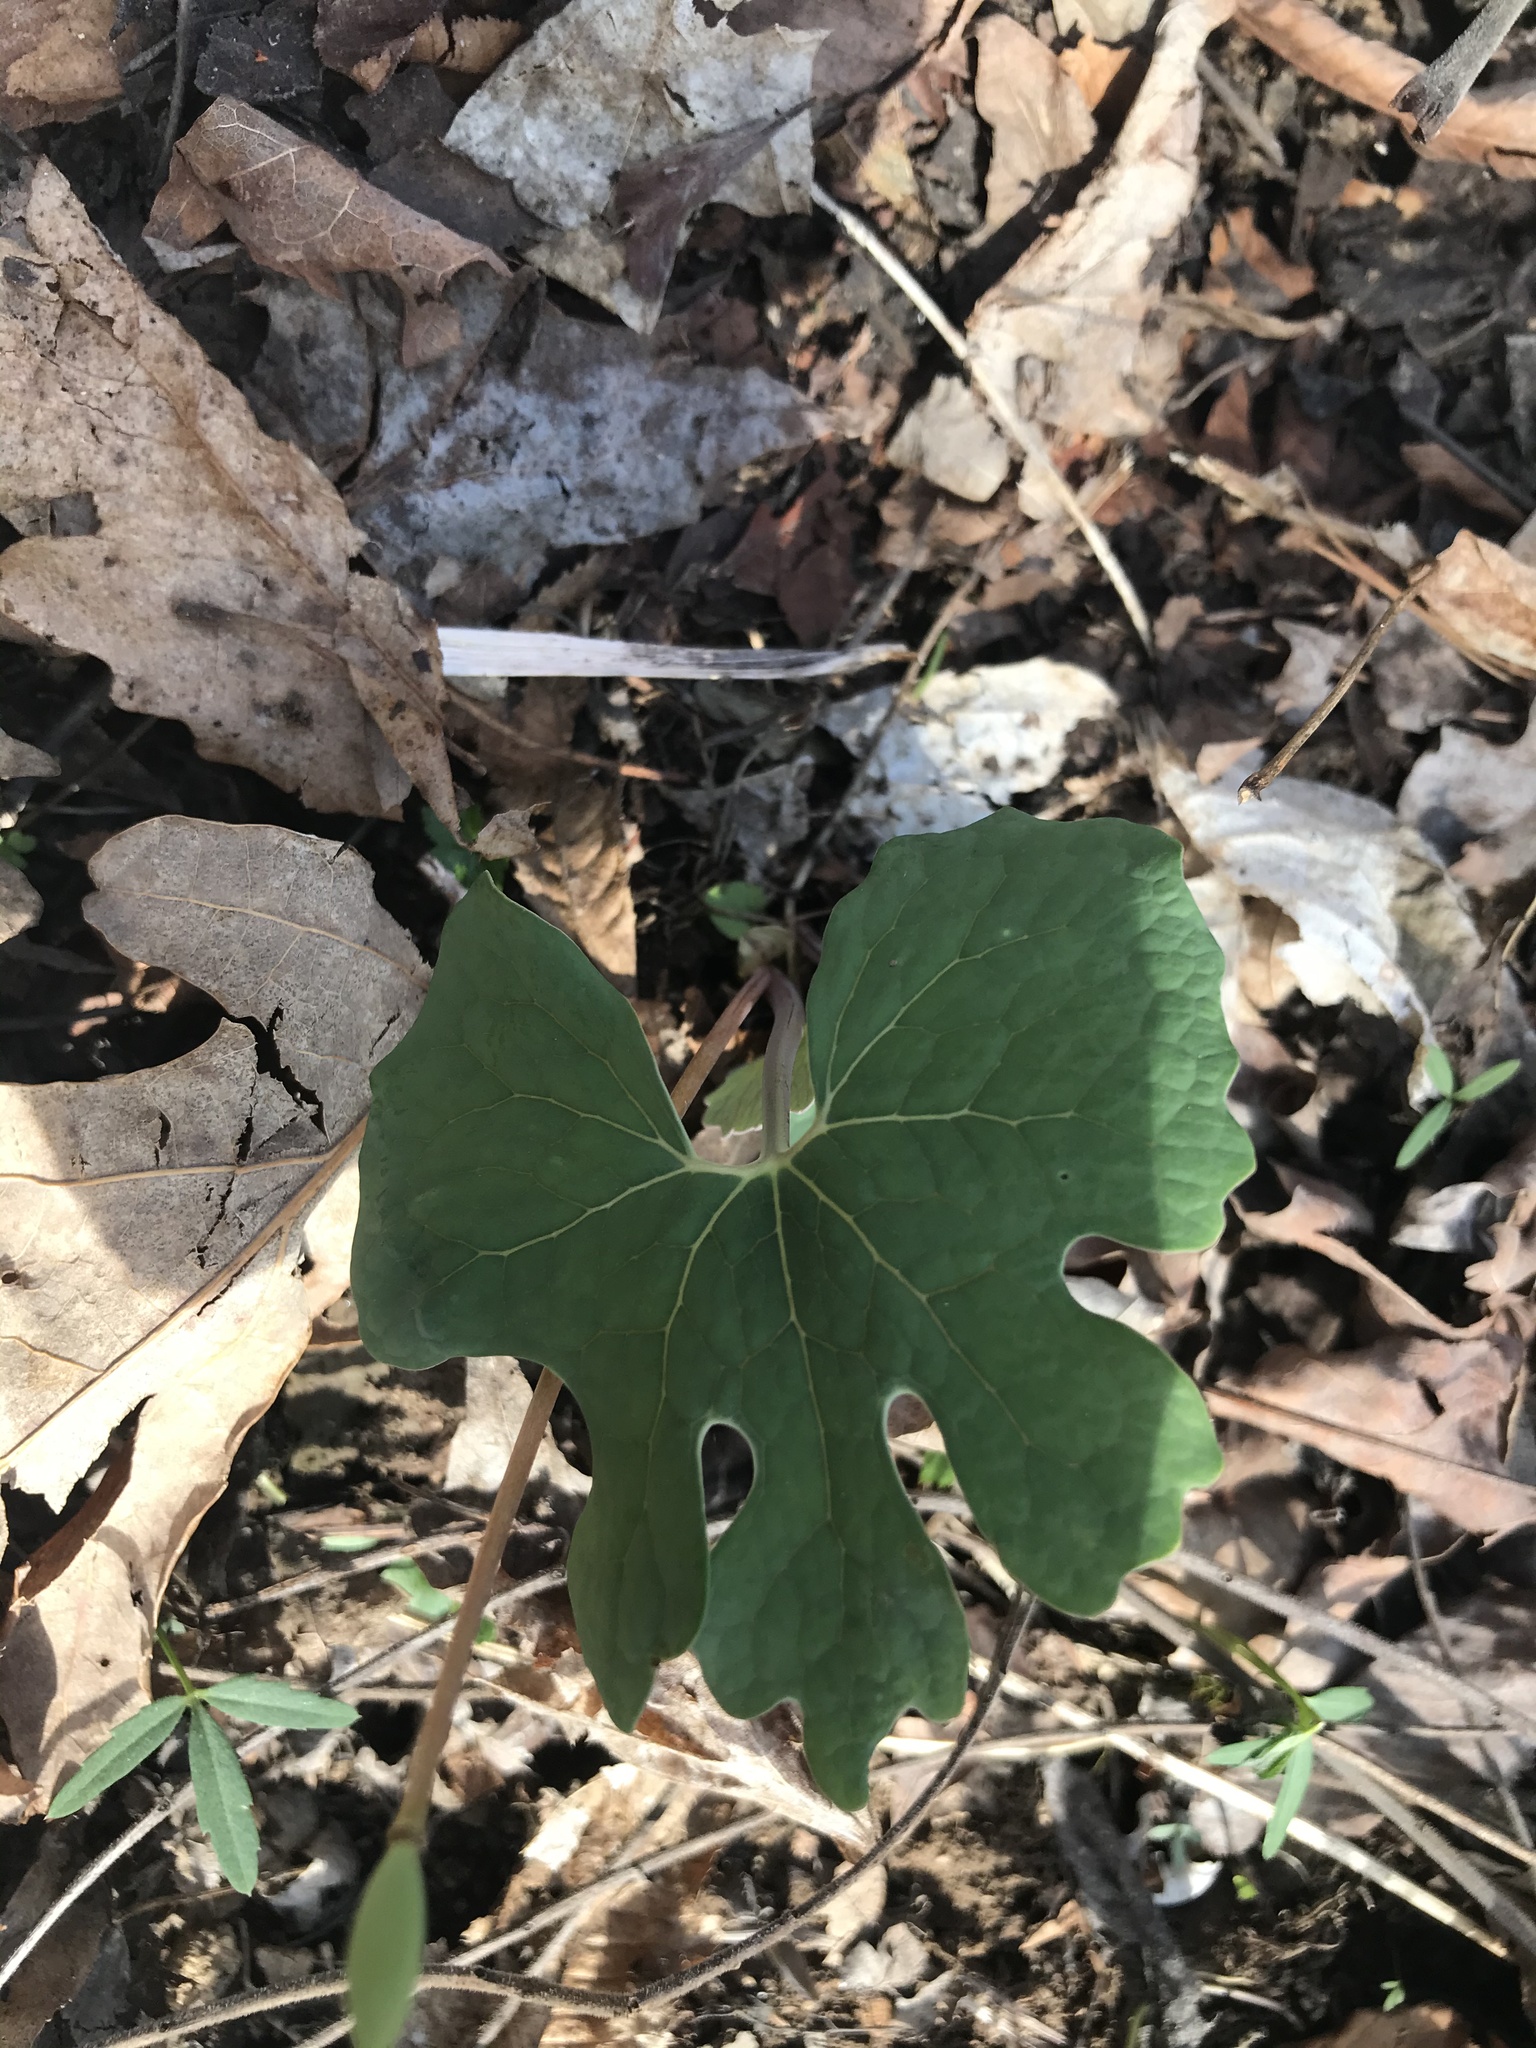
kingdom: Plantae
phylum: Tracheophyta
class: Magnoliopsida
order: Ranunculales
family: Papaveraceae
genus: Sanguinaria
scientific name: Sanguinaria canadensis
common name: Bloodroot
